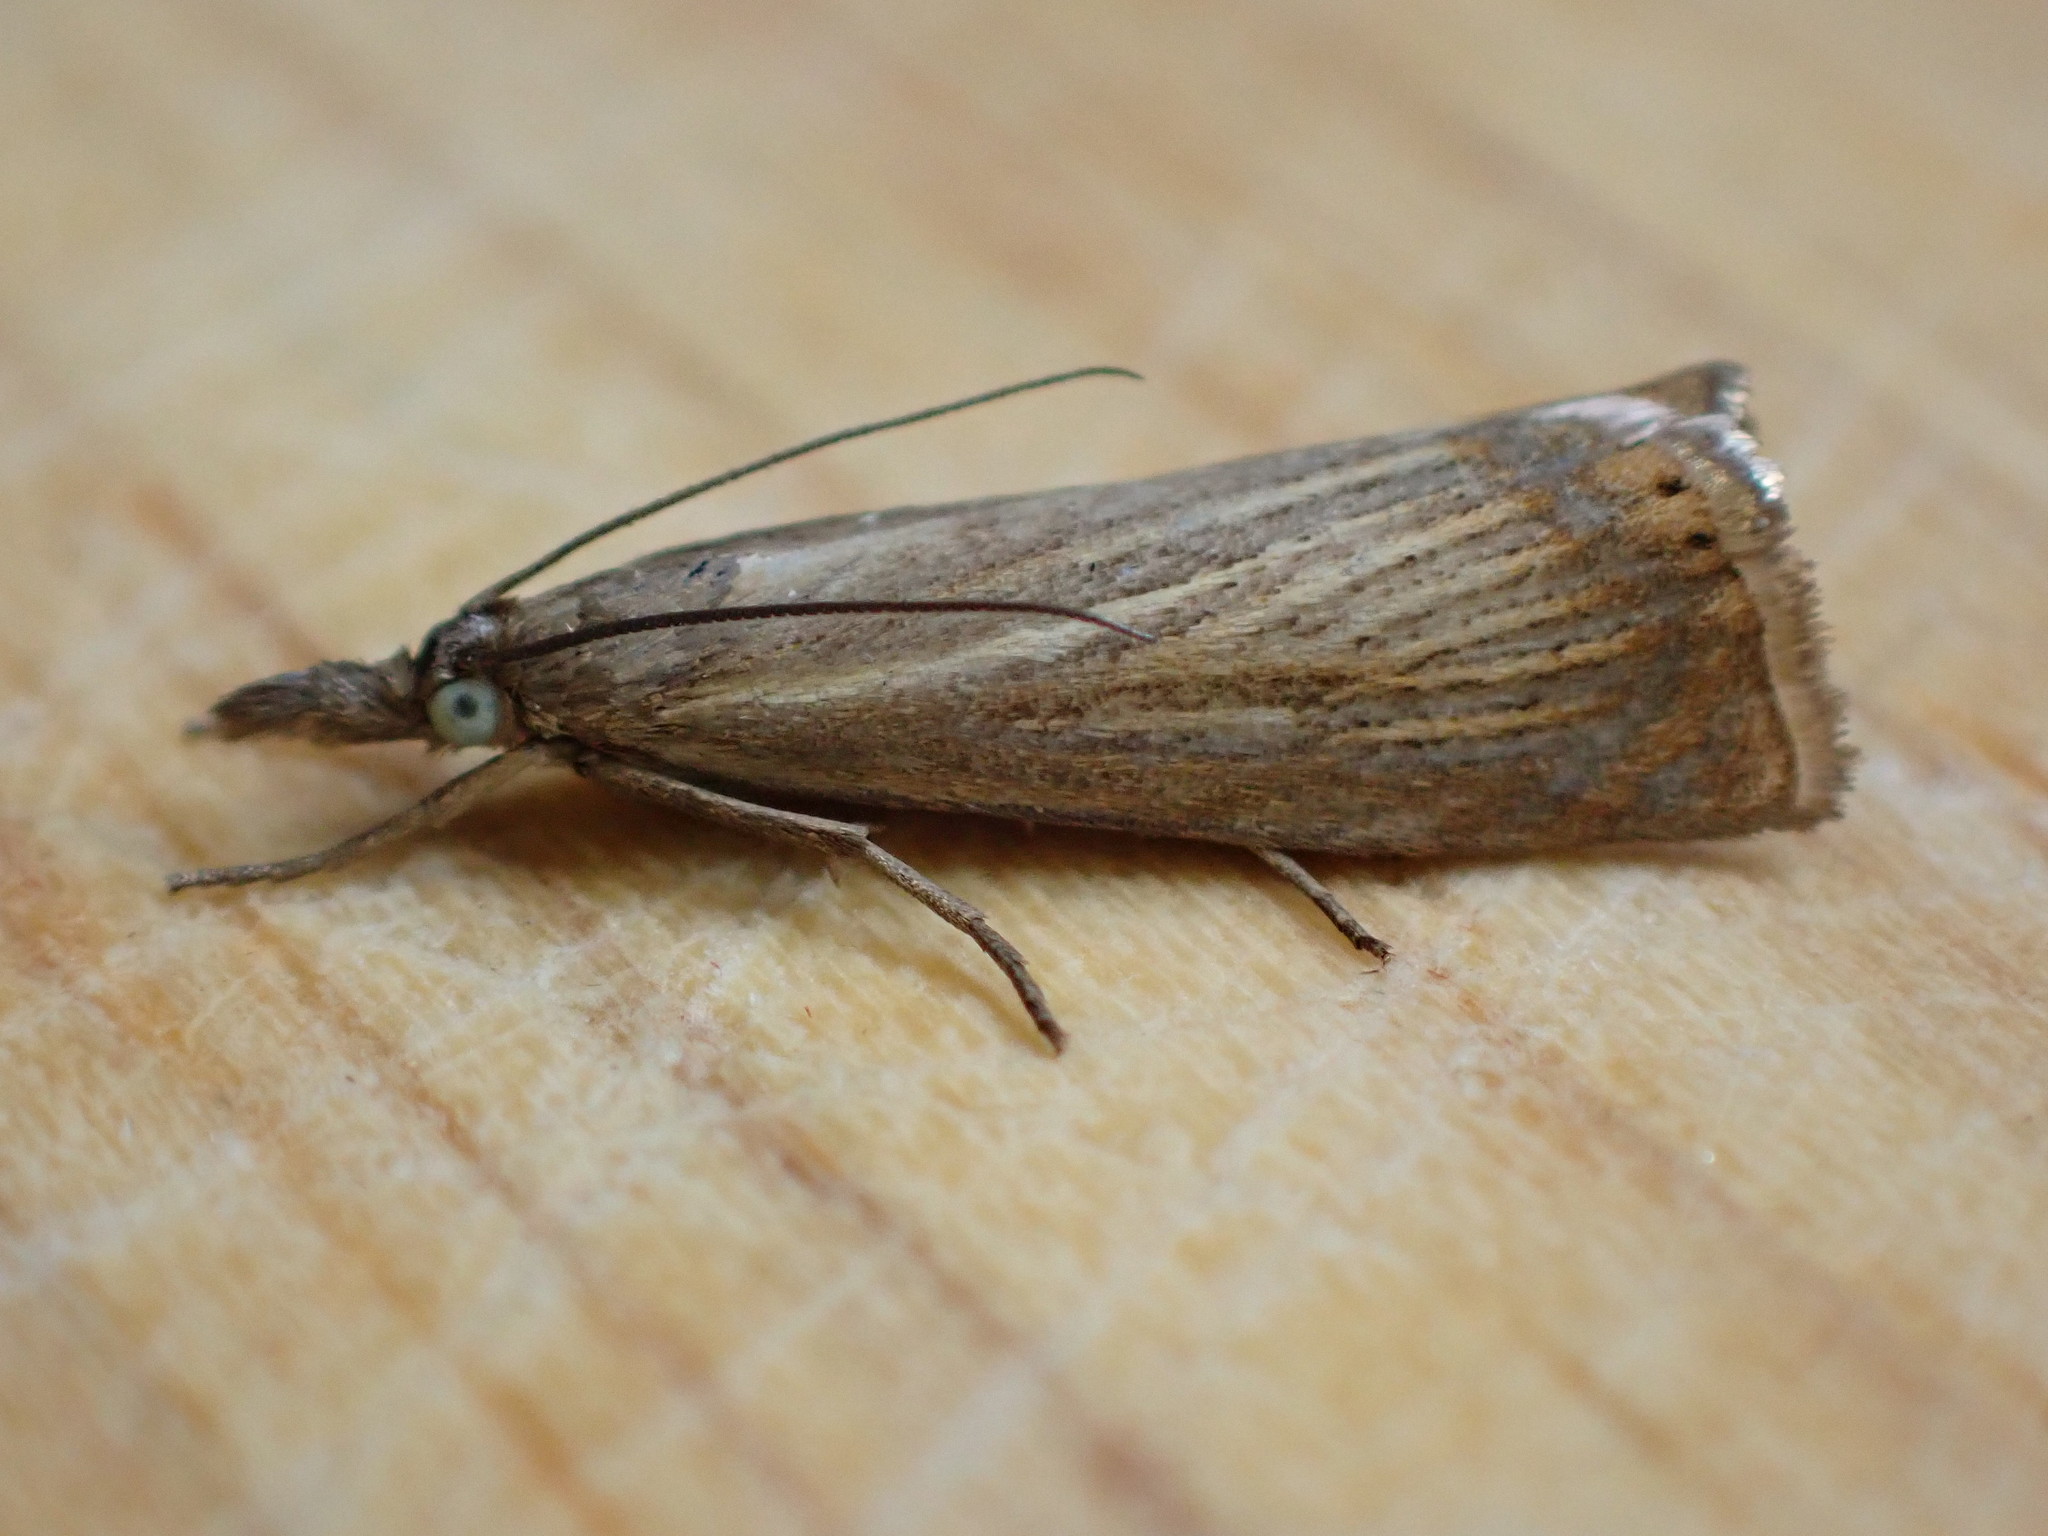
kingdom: Animalia
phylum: Arthropoda
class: Insecta
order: Lepidoptera
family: Crambidae
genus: Chrysoteuchia
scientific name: Chrysoteuchia culmella
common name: Garden grass-veneer
